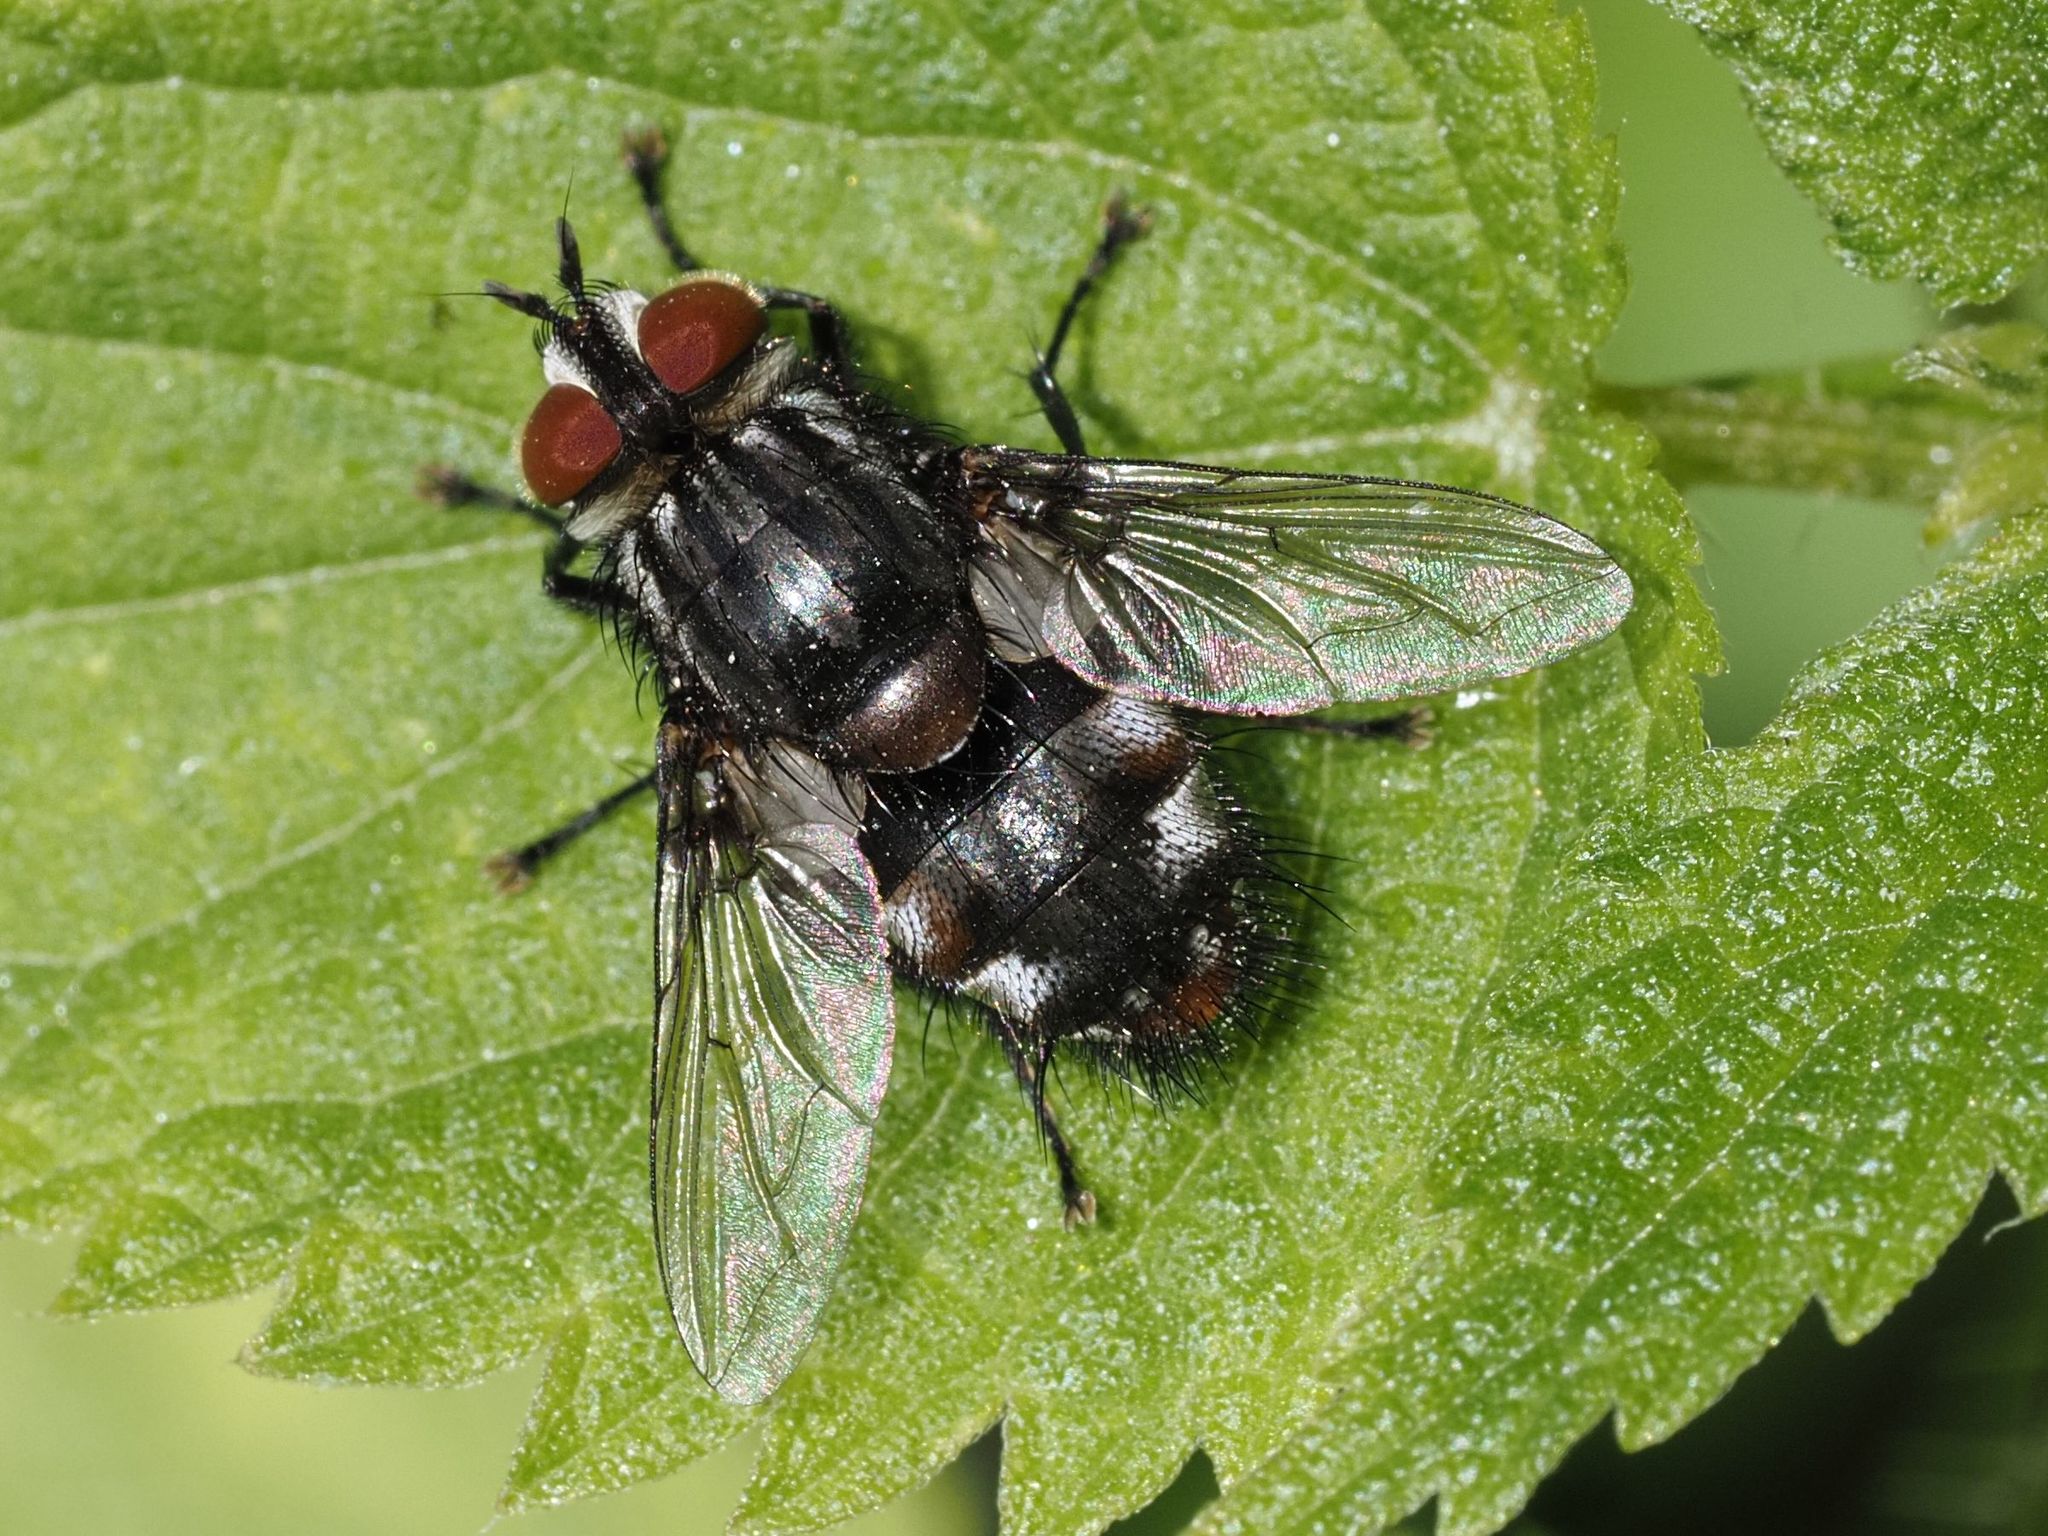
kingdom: Animalia
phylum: Arthropoda
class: Insecta
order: Diptera
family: Tachinidae
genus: Winthemia
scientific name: Winthemia quadripustulata
